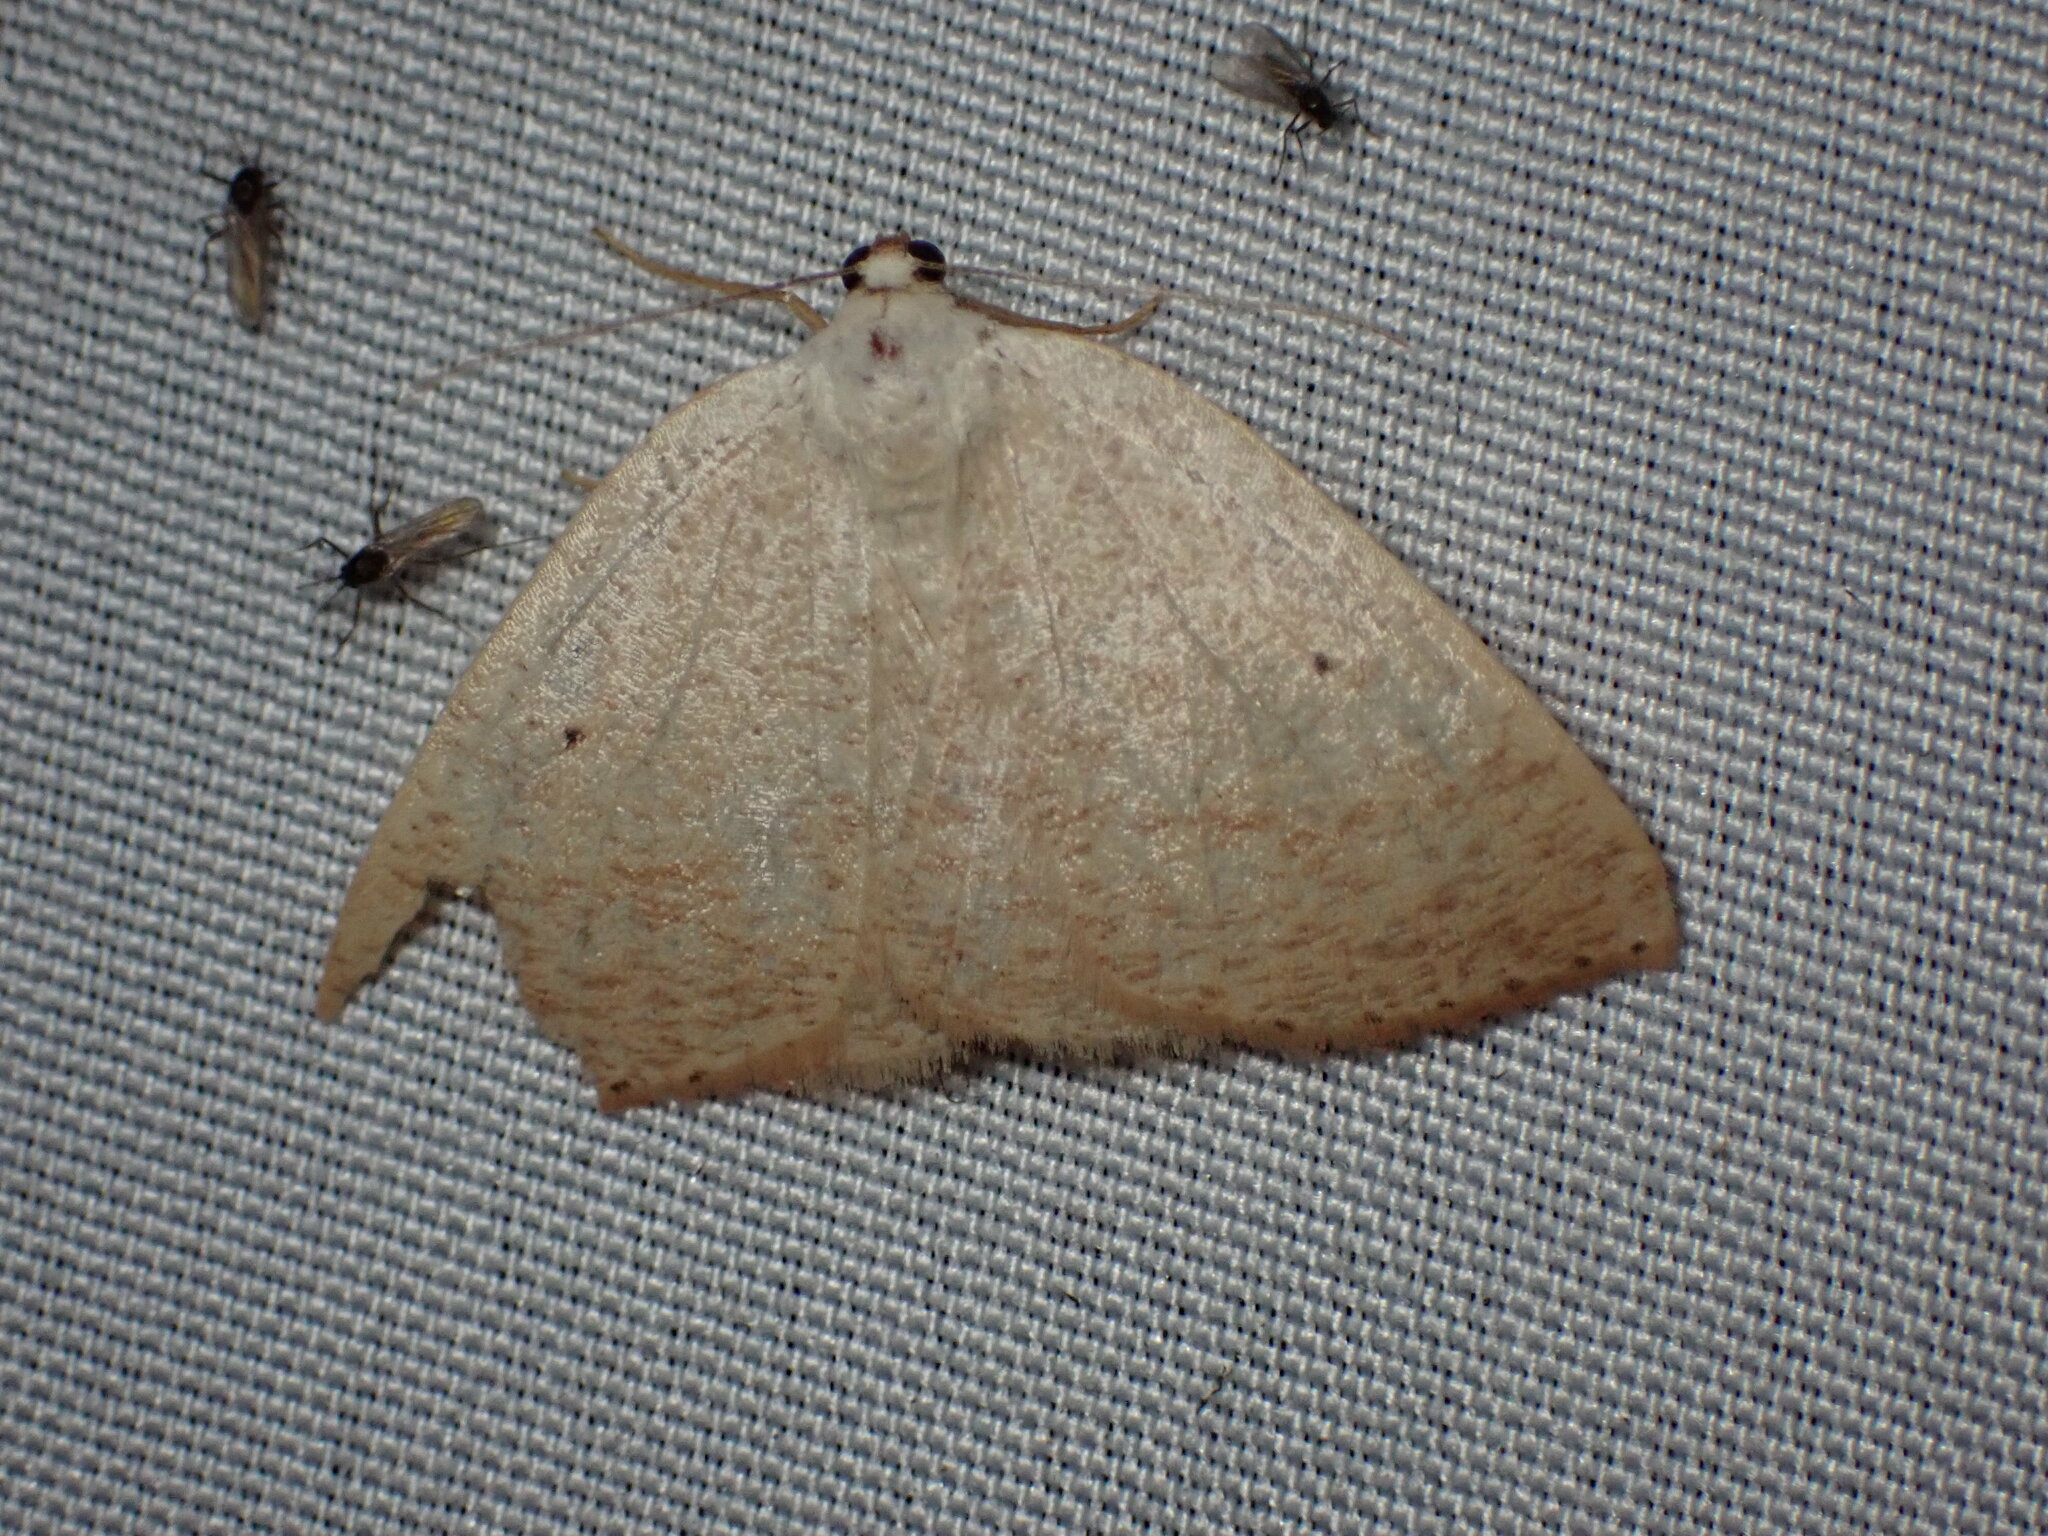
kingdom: Animalia
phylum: Arthropoda
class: Insecta
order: Lepidoptera
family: Geometridae
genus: Eudrepanulatrix
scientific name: Eudrepanulatrix rectifascia
